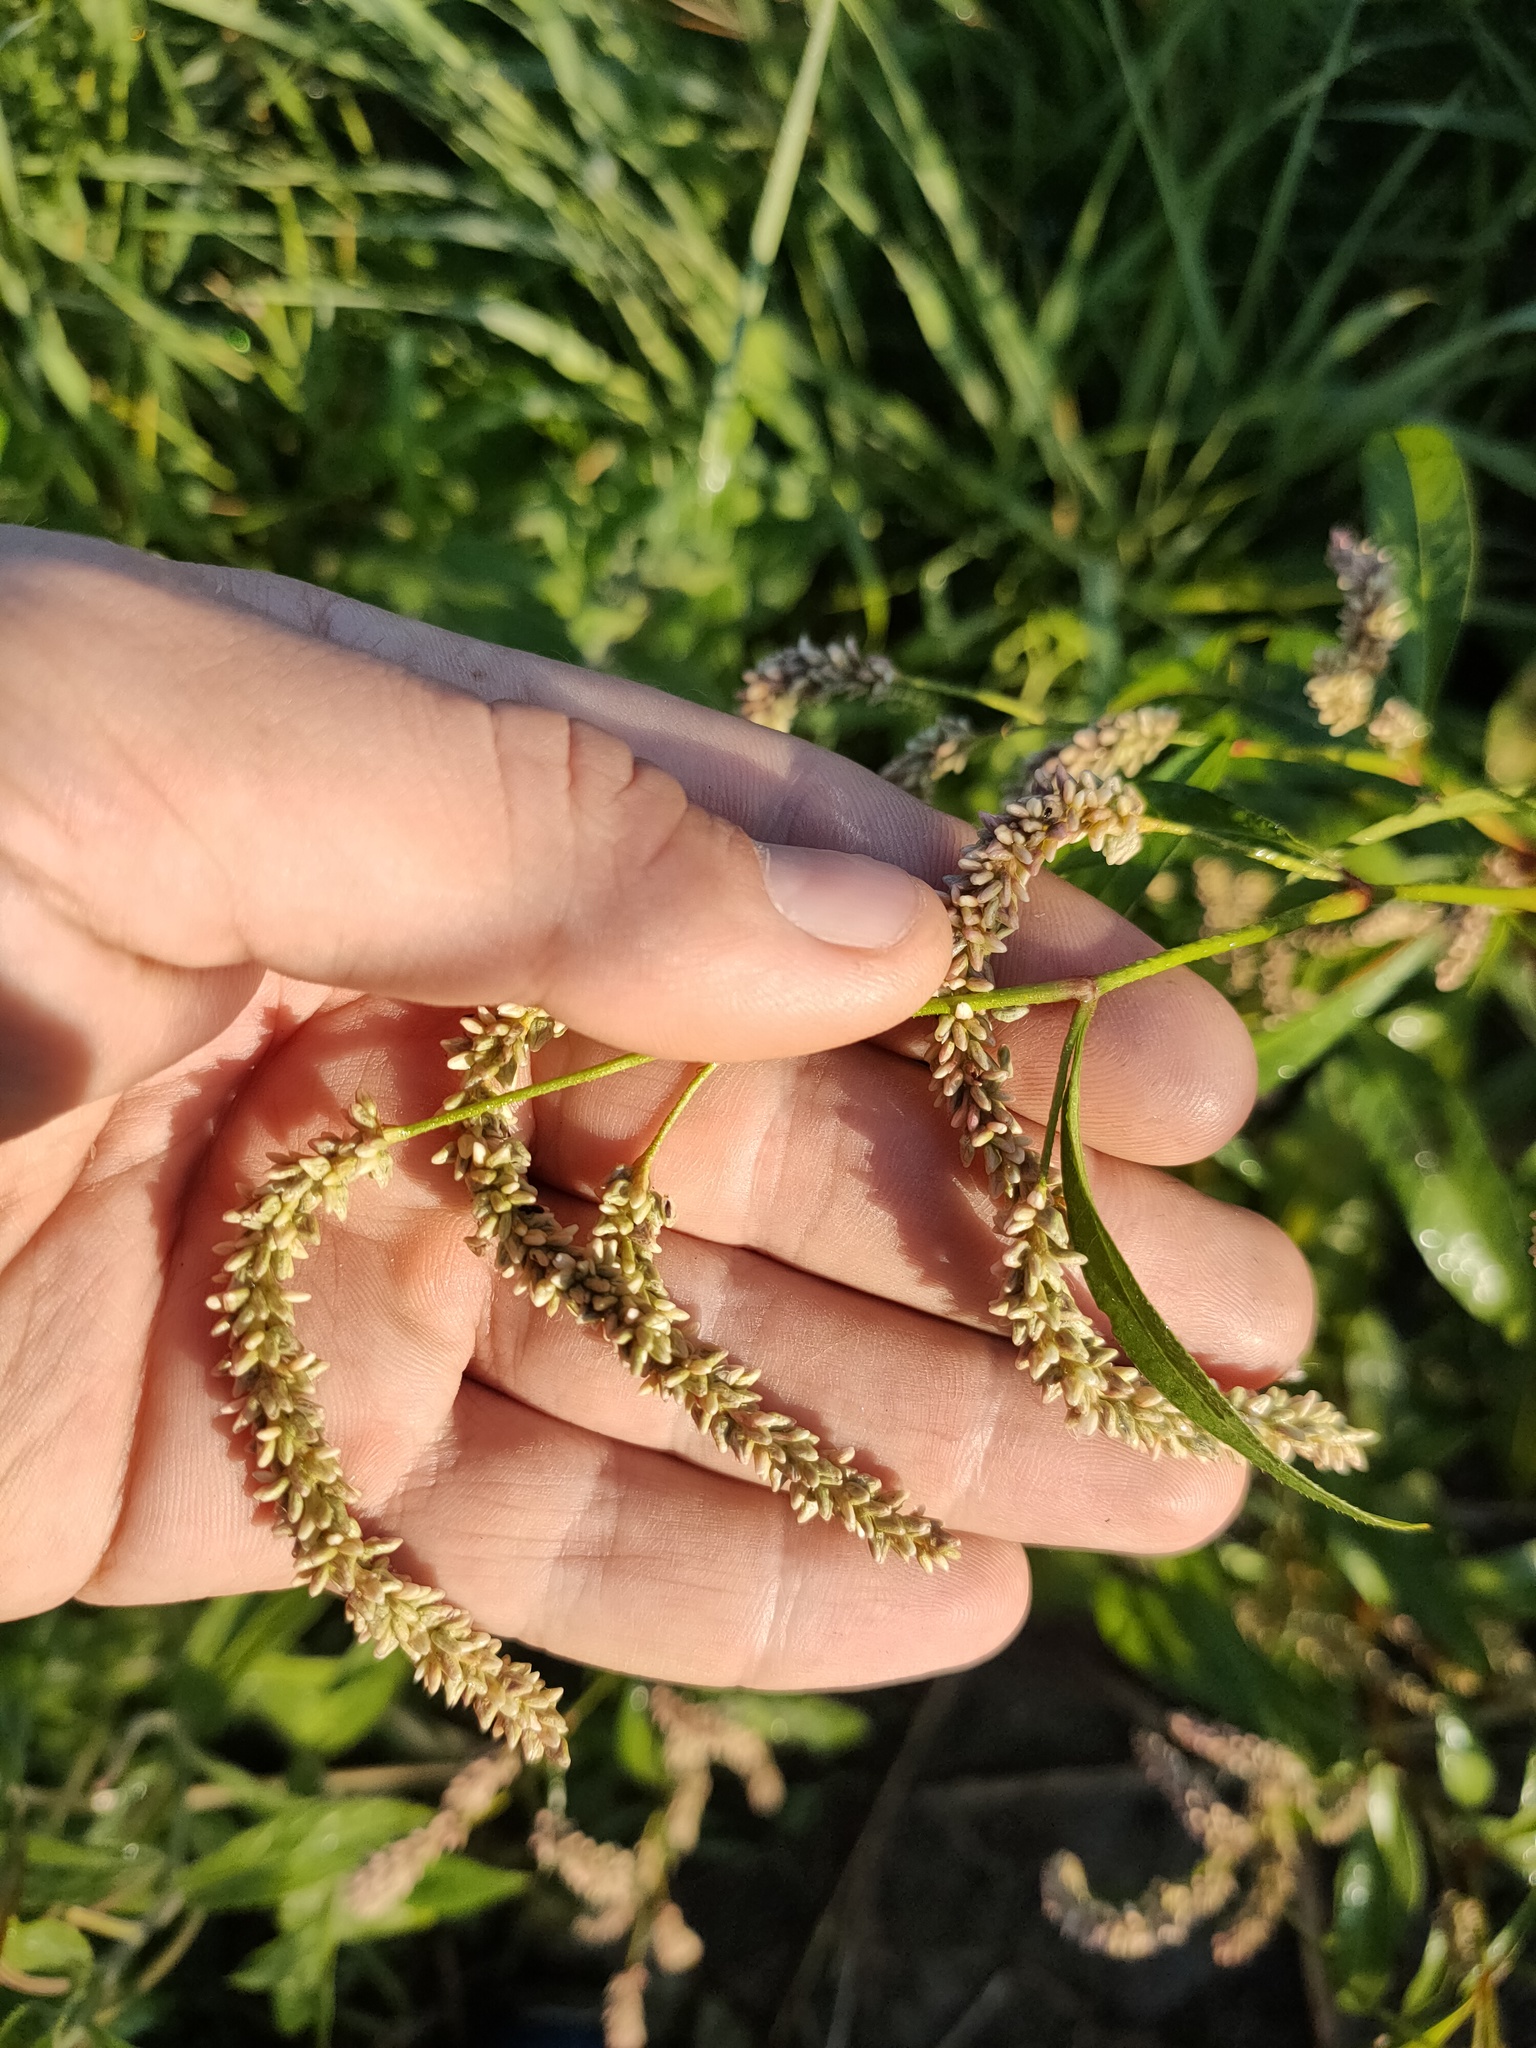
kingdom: Plantae
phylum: Tracheophyta
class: Magnoliopsida
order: Caryophyllales
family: Polygonaceae
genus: Persicaria
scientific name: Persicaria lapathifolia
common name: Curlytop knotweed
